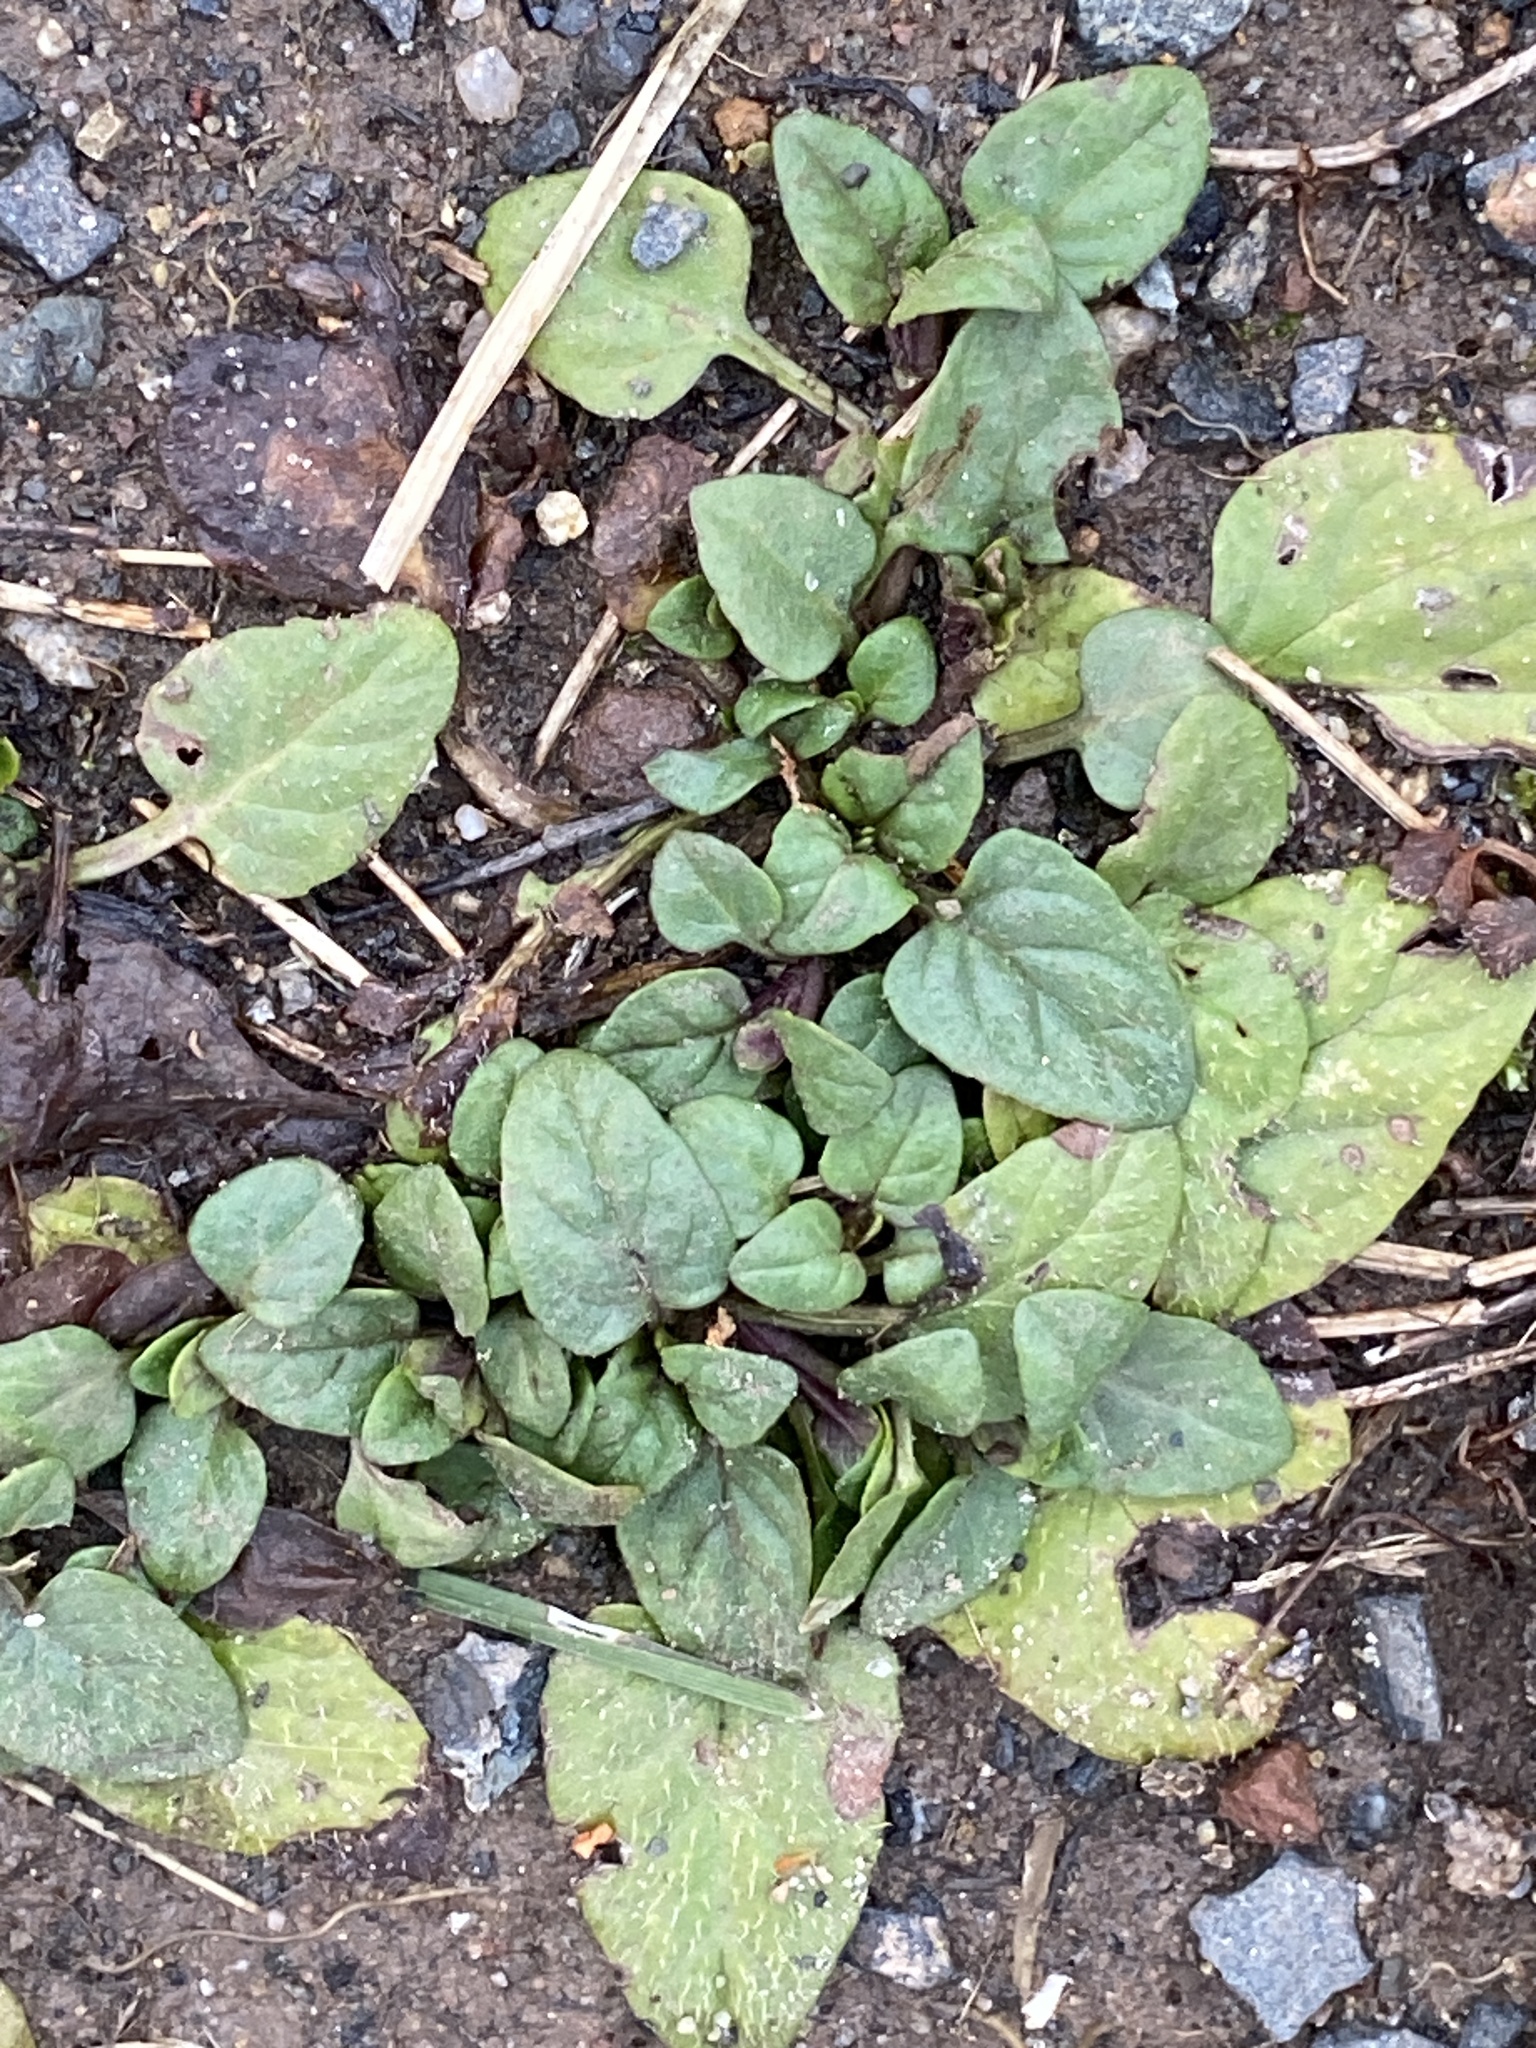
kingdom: Plantae
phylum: Tracheophyta
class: Magnoliopsida
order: Lamiales
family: Lamiaceae
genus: Prunella
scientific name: Prunella vulgaris
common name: Heal-all
